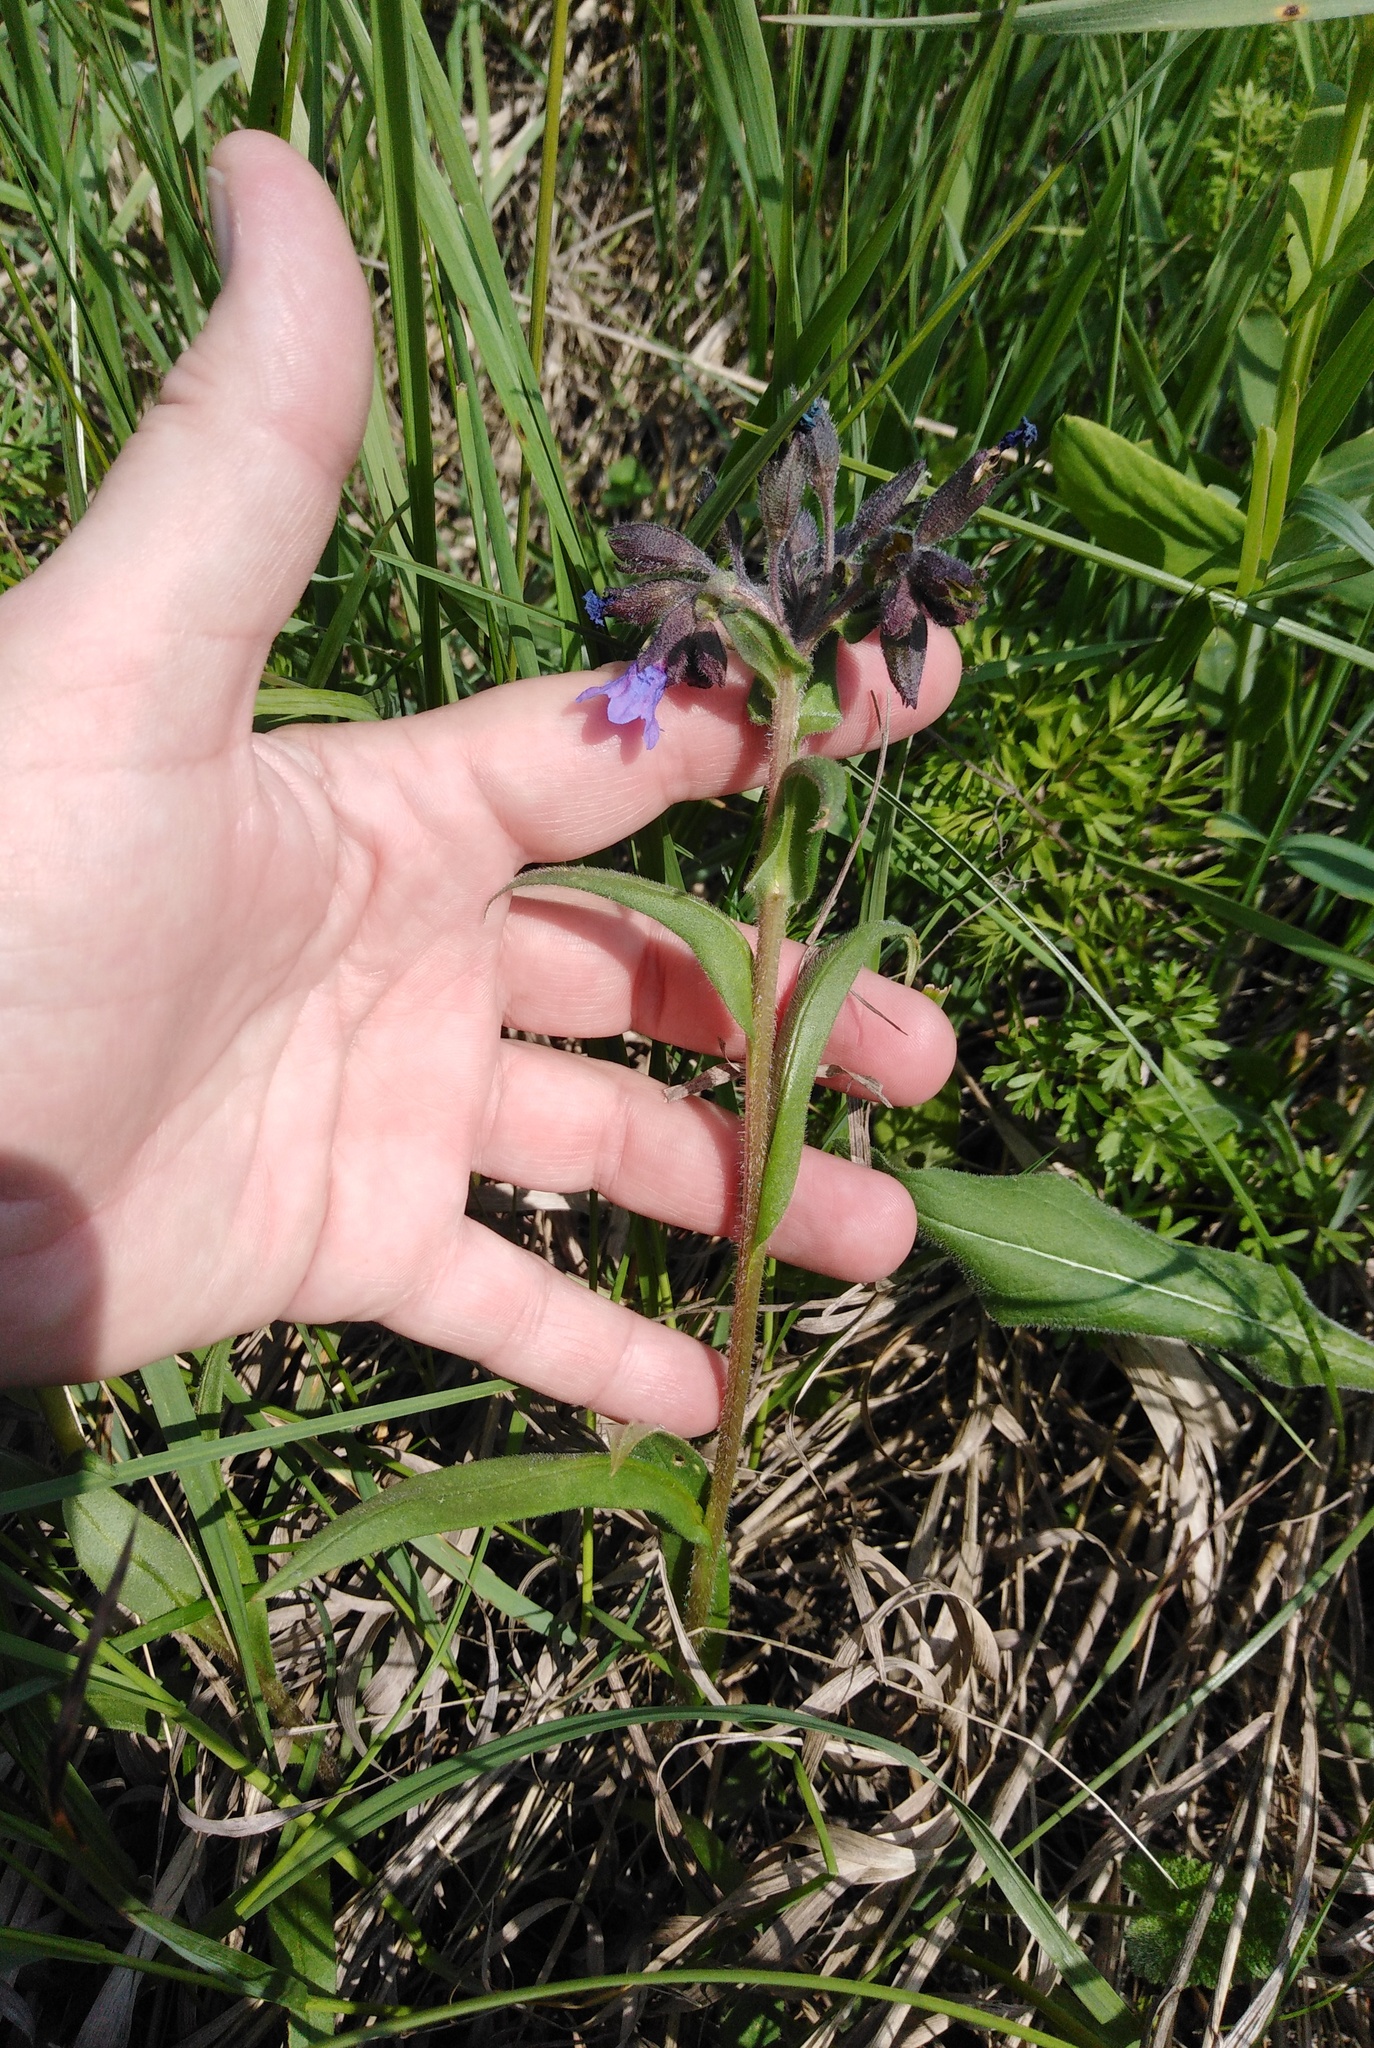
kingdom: Plantae
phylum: Tracheophyta
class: Magnoliopsida
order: Boraginales
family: Boraginaceae
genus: Pulmonaria
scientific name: Pulmonaria angustifolia
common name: Blue cowslip
